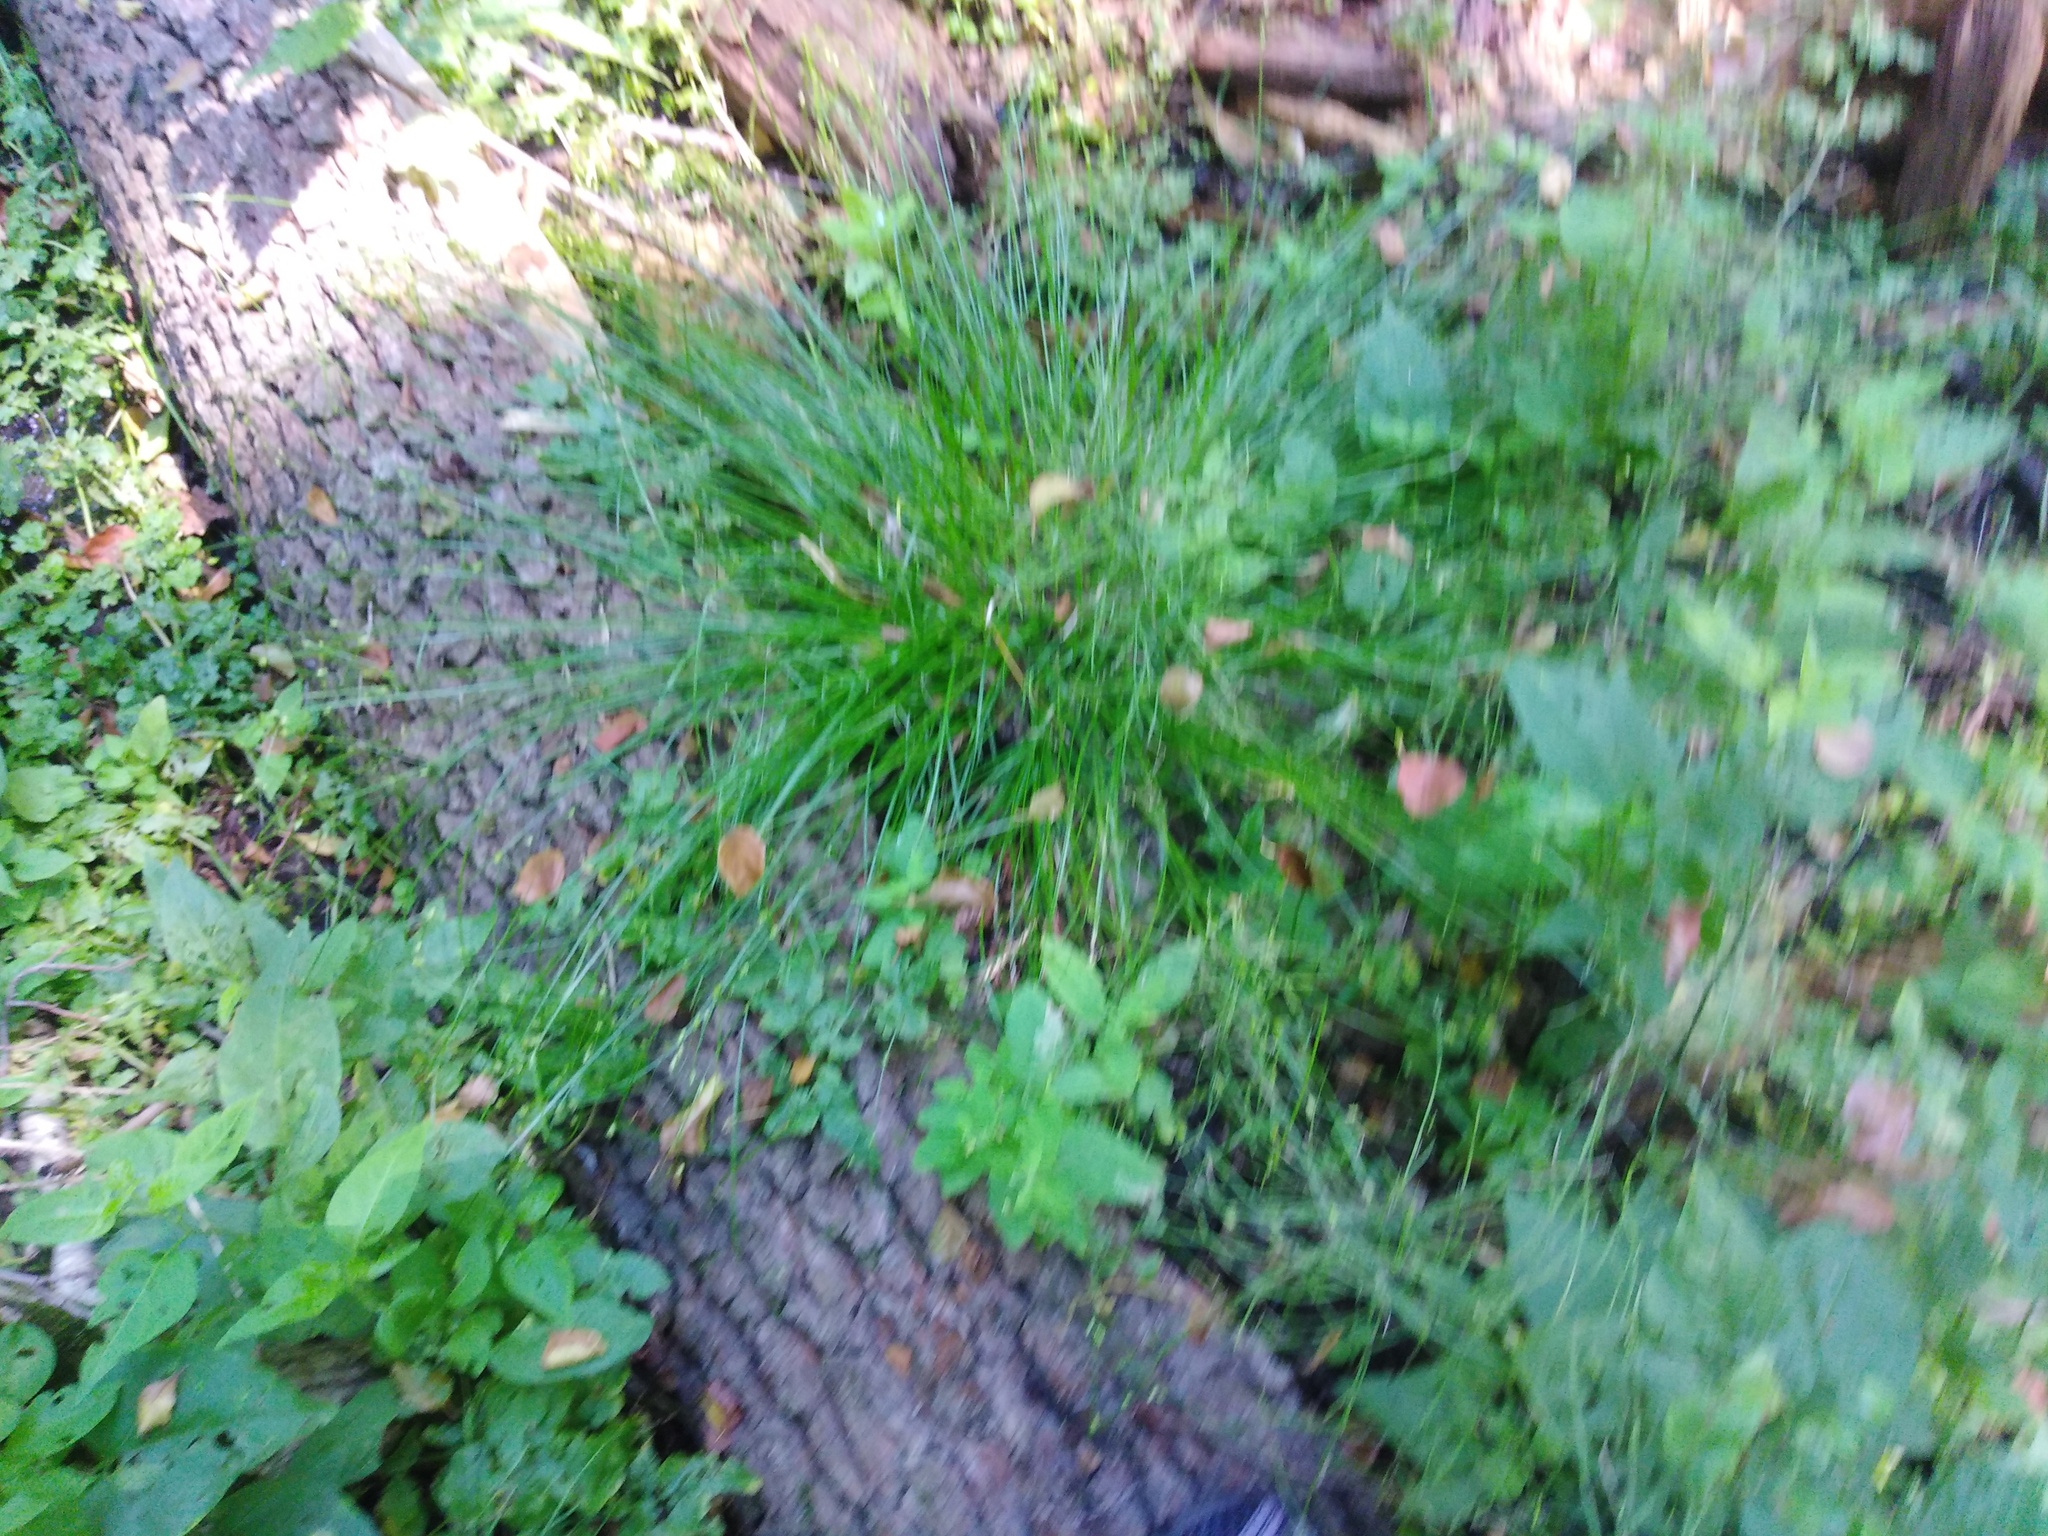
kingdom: Plantae
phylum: Tracheophyta
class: Liliopsida
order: Poales
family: Cyperaceae
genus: Carex
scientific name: Carex remota
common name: Remote sedge
